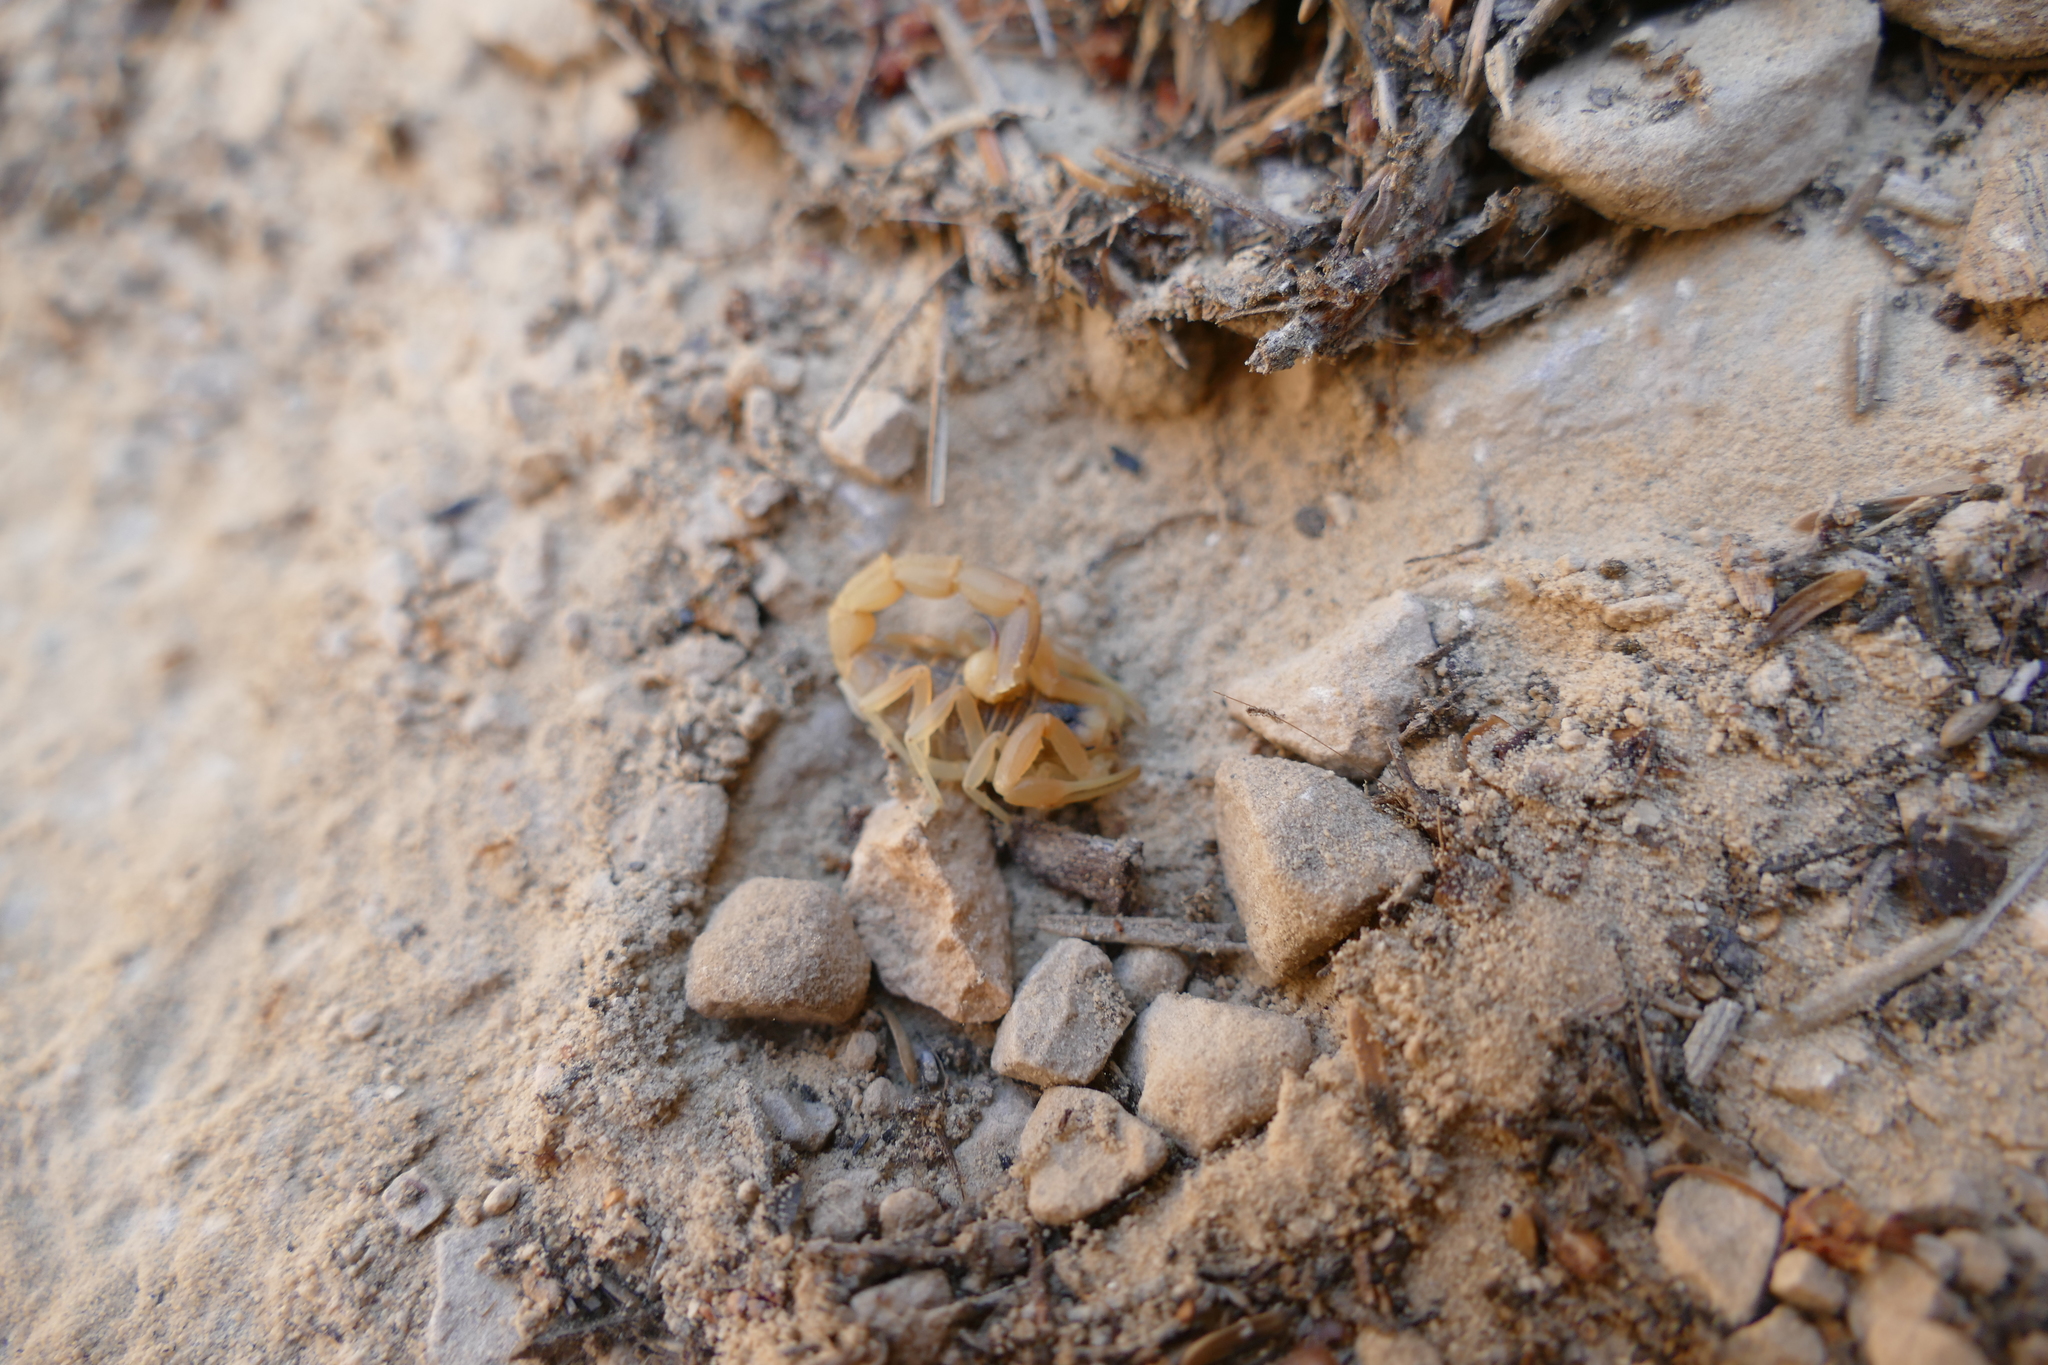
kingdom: Animalia
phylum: Arthropoda
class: Arachnida
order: Scorpiones
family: Buthidae
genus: Buthus
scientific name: Buthus occitanus
